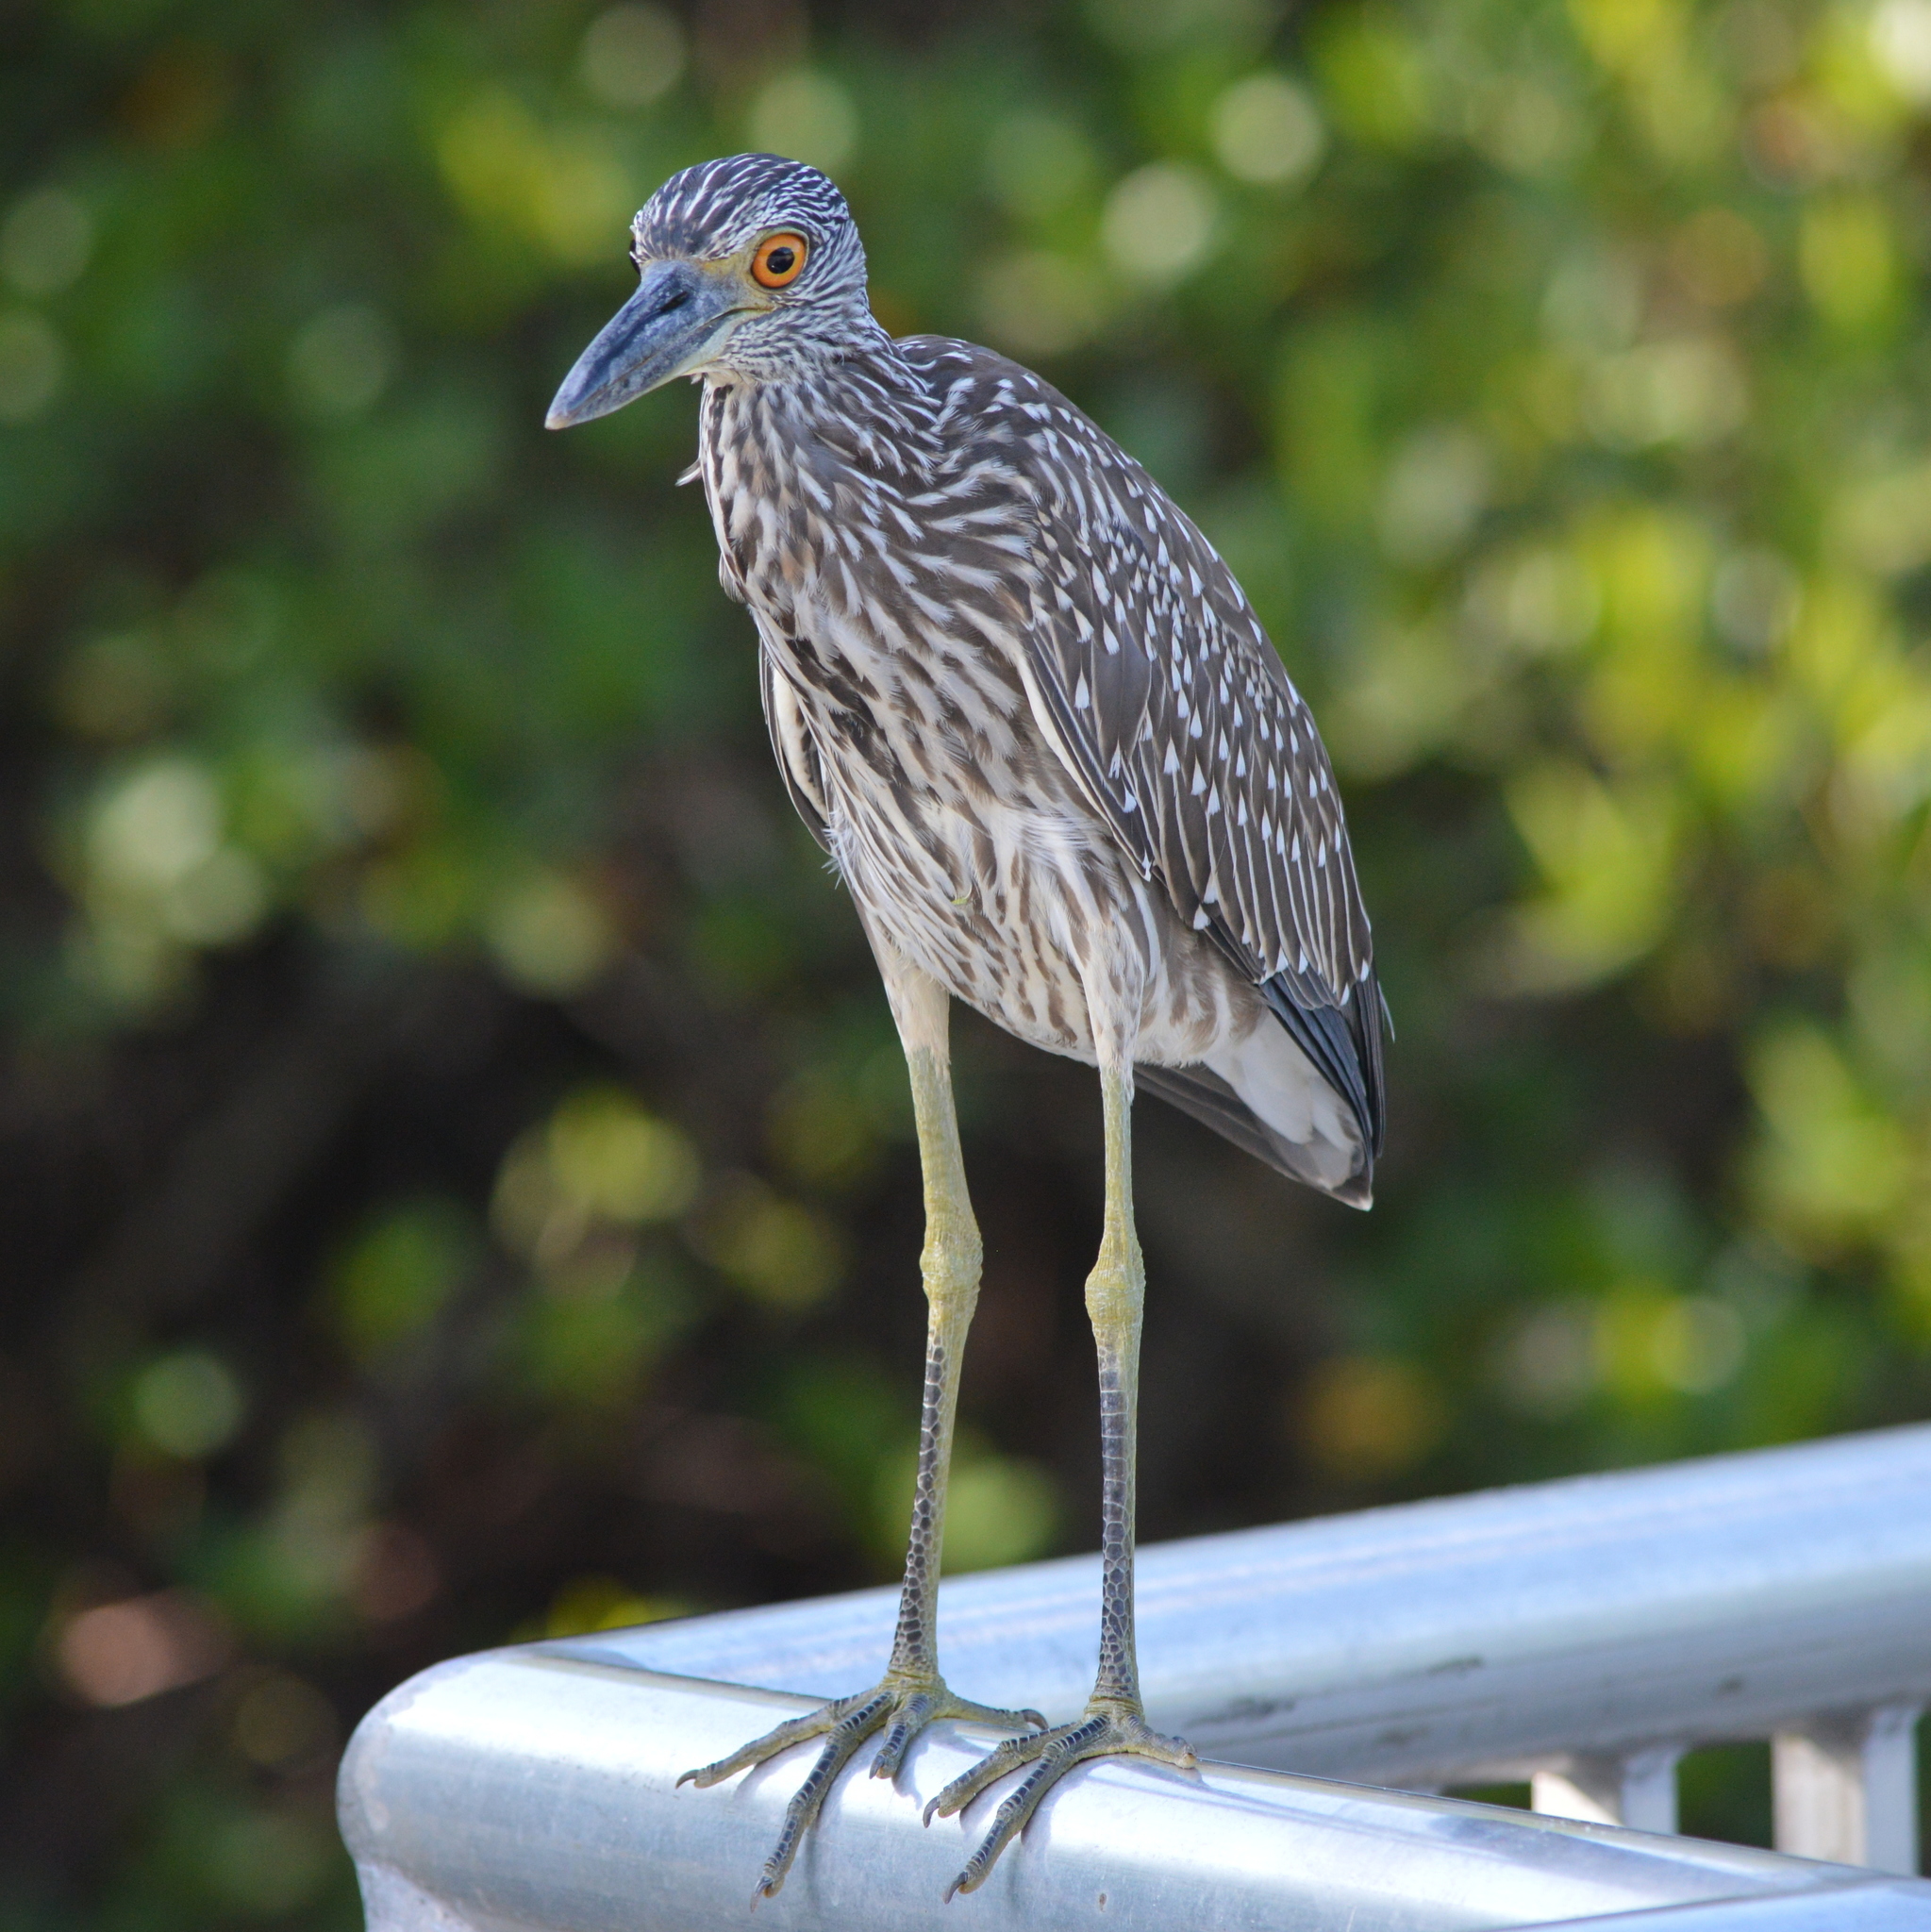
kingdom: Animalia
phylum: Chordata
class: Aves
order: Pelecaniformes
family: Ardeidae
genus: Nyctanassa
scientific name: Nyctanassa violacea
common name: Yellow-crowned night heron
